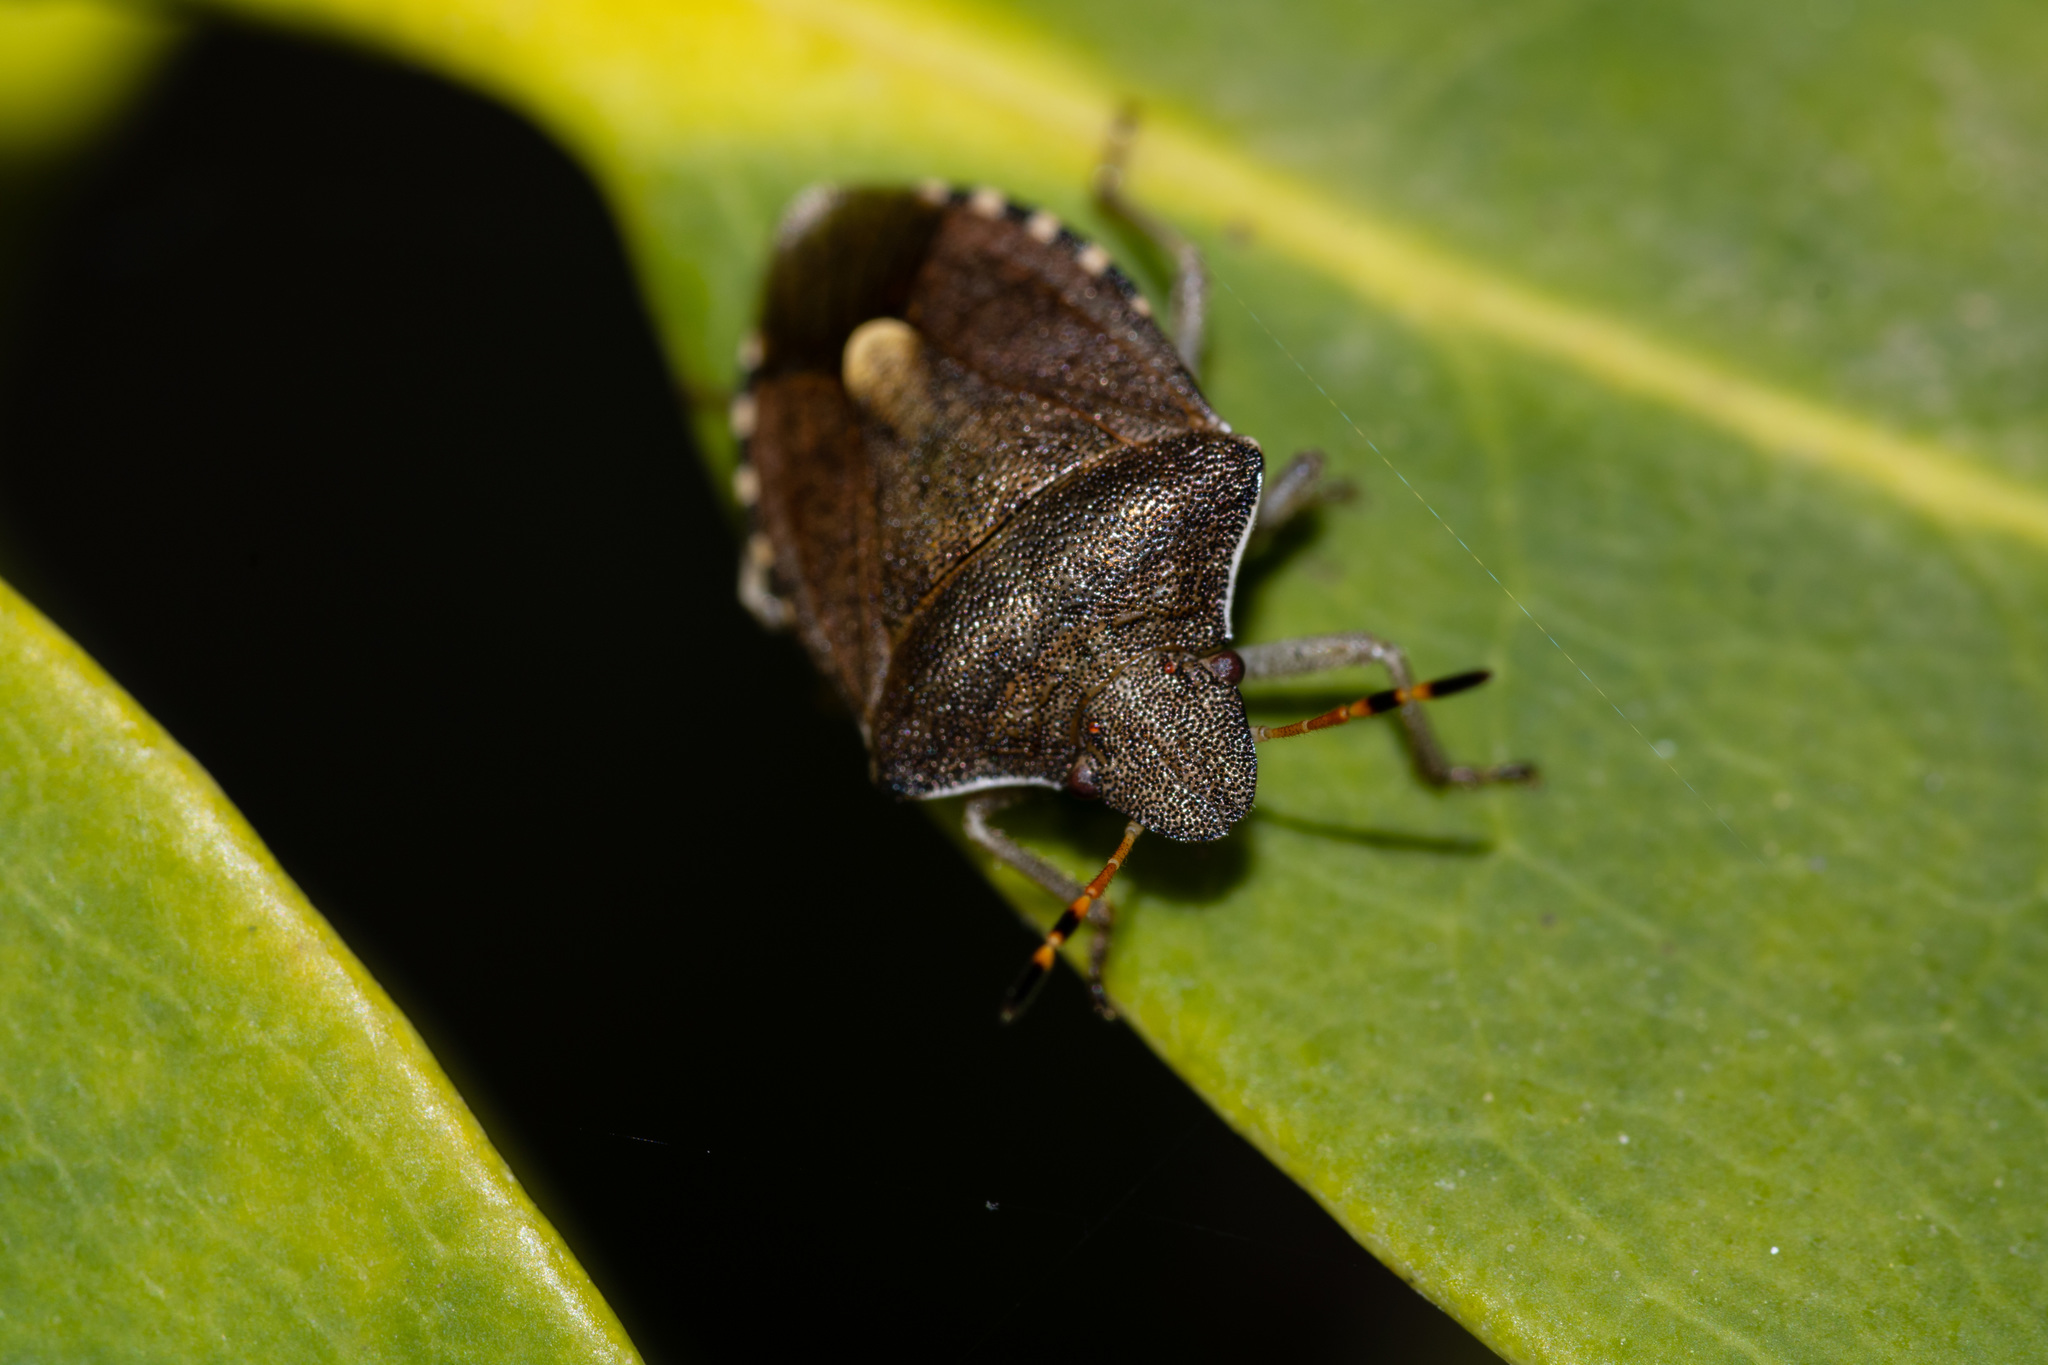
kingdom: Animalia
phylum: Arthropoda
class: Insecta
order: Hemiptera
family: Pentatomidae
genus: Holcostethus
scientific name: Holcostethus strictus
